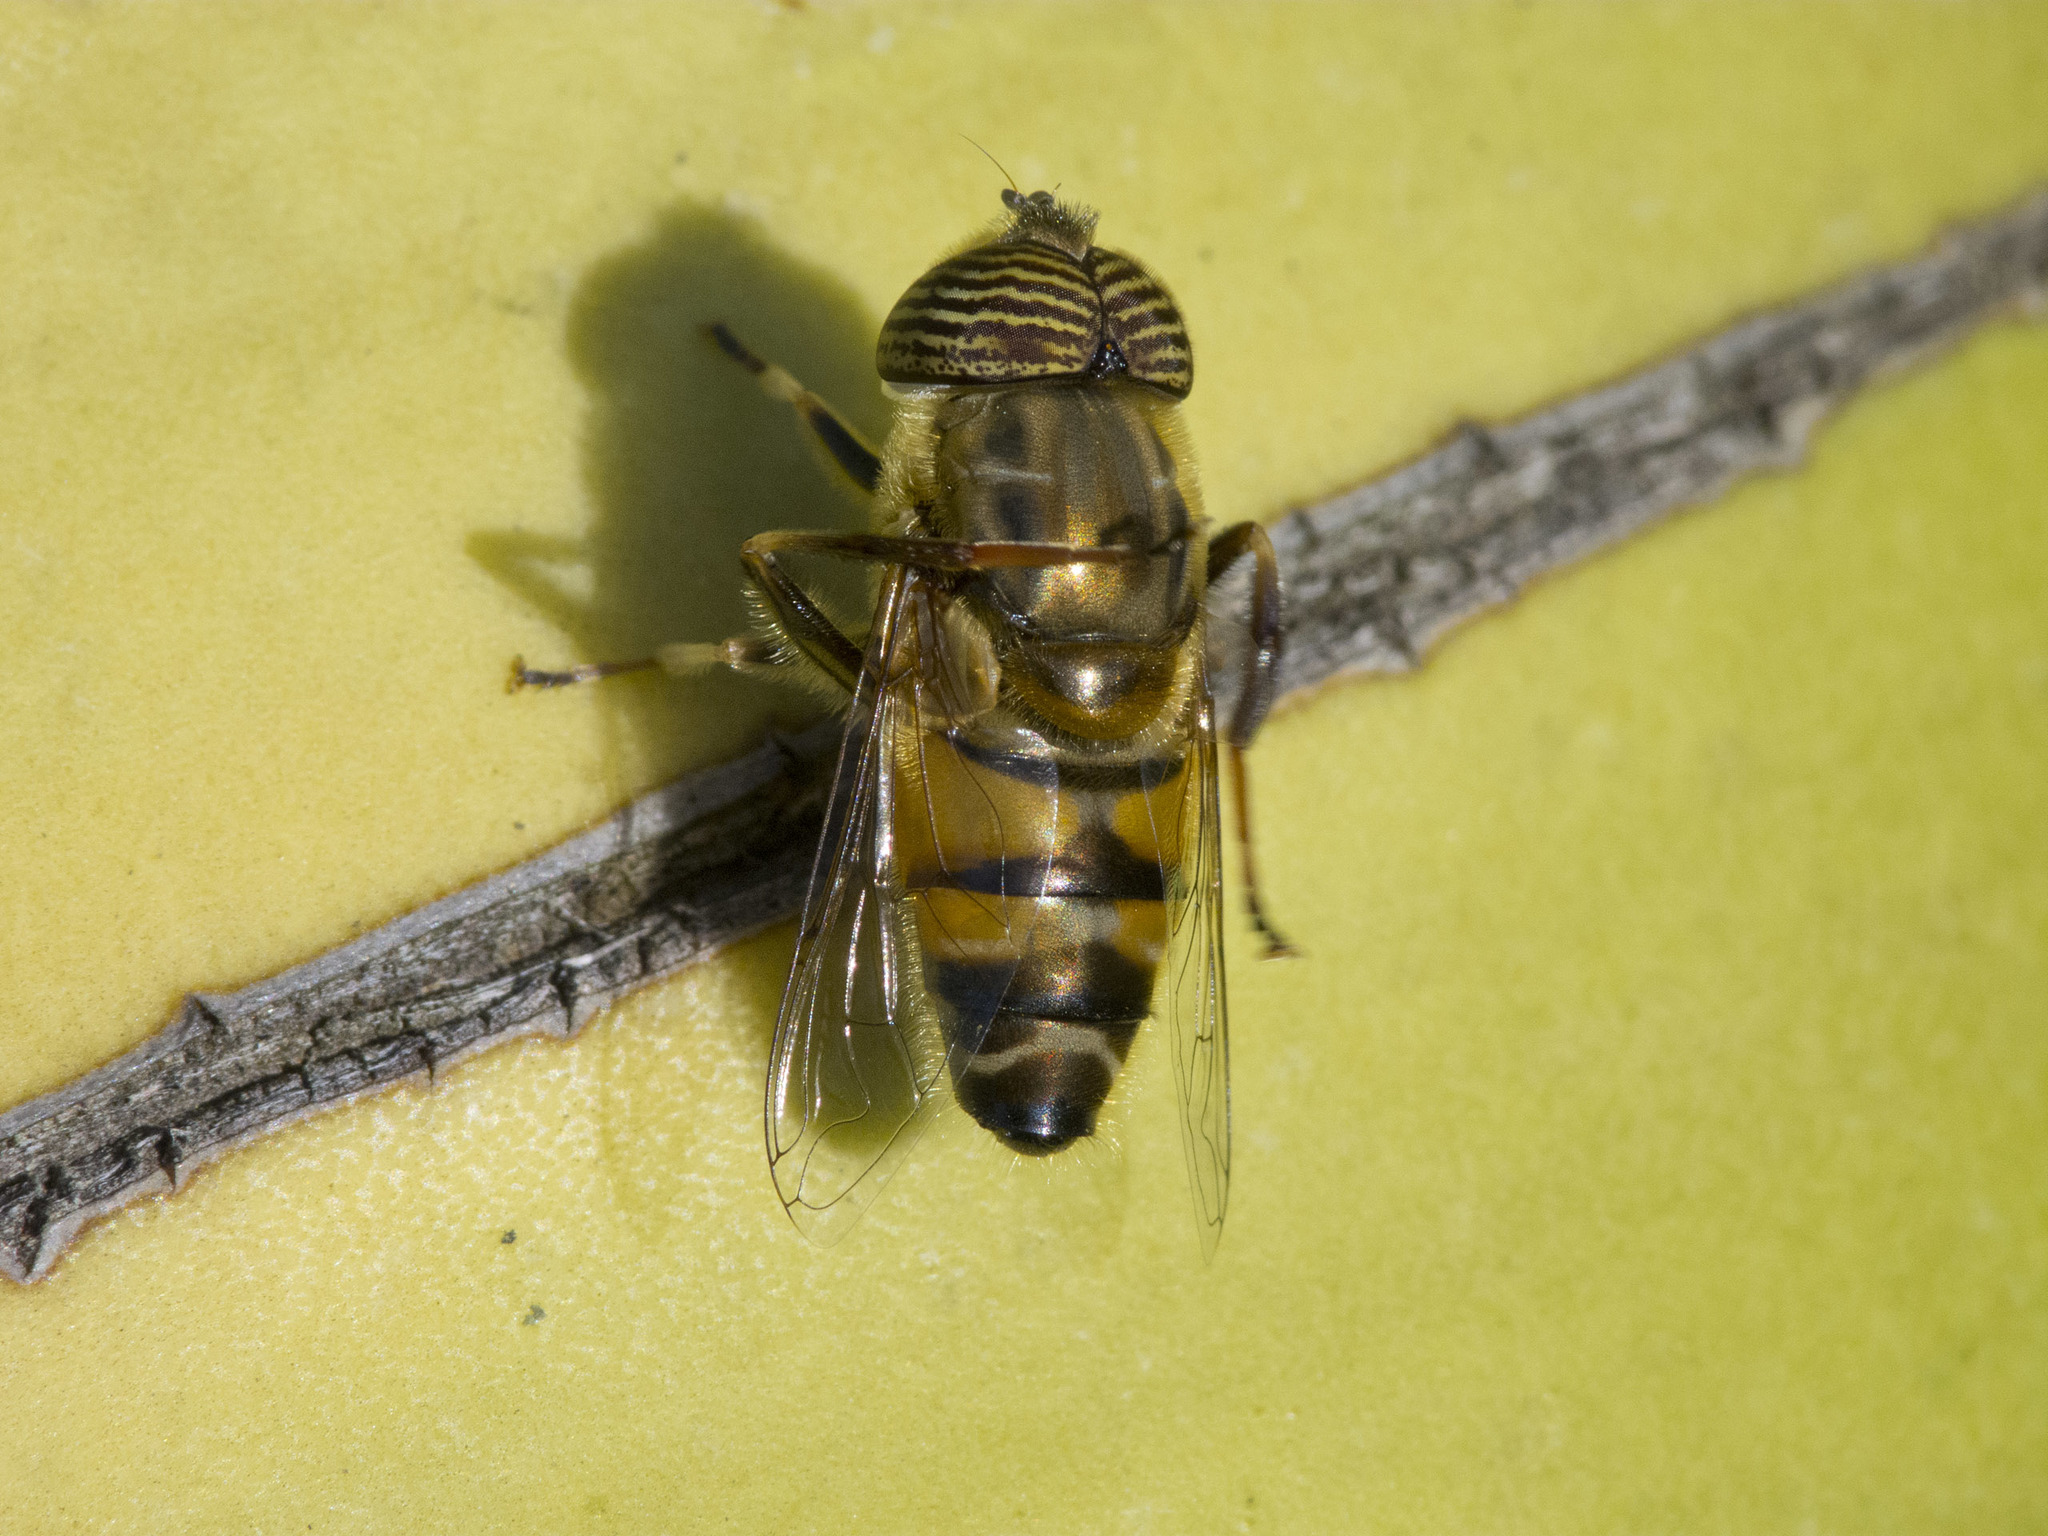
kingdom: Animalia
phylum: Arthropoda
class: Insecta
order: Diptera
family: Syrphidae
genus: Eristalinus
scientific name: Eristalinus taeniops
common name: Syrphid fly
